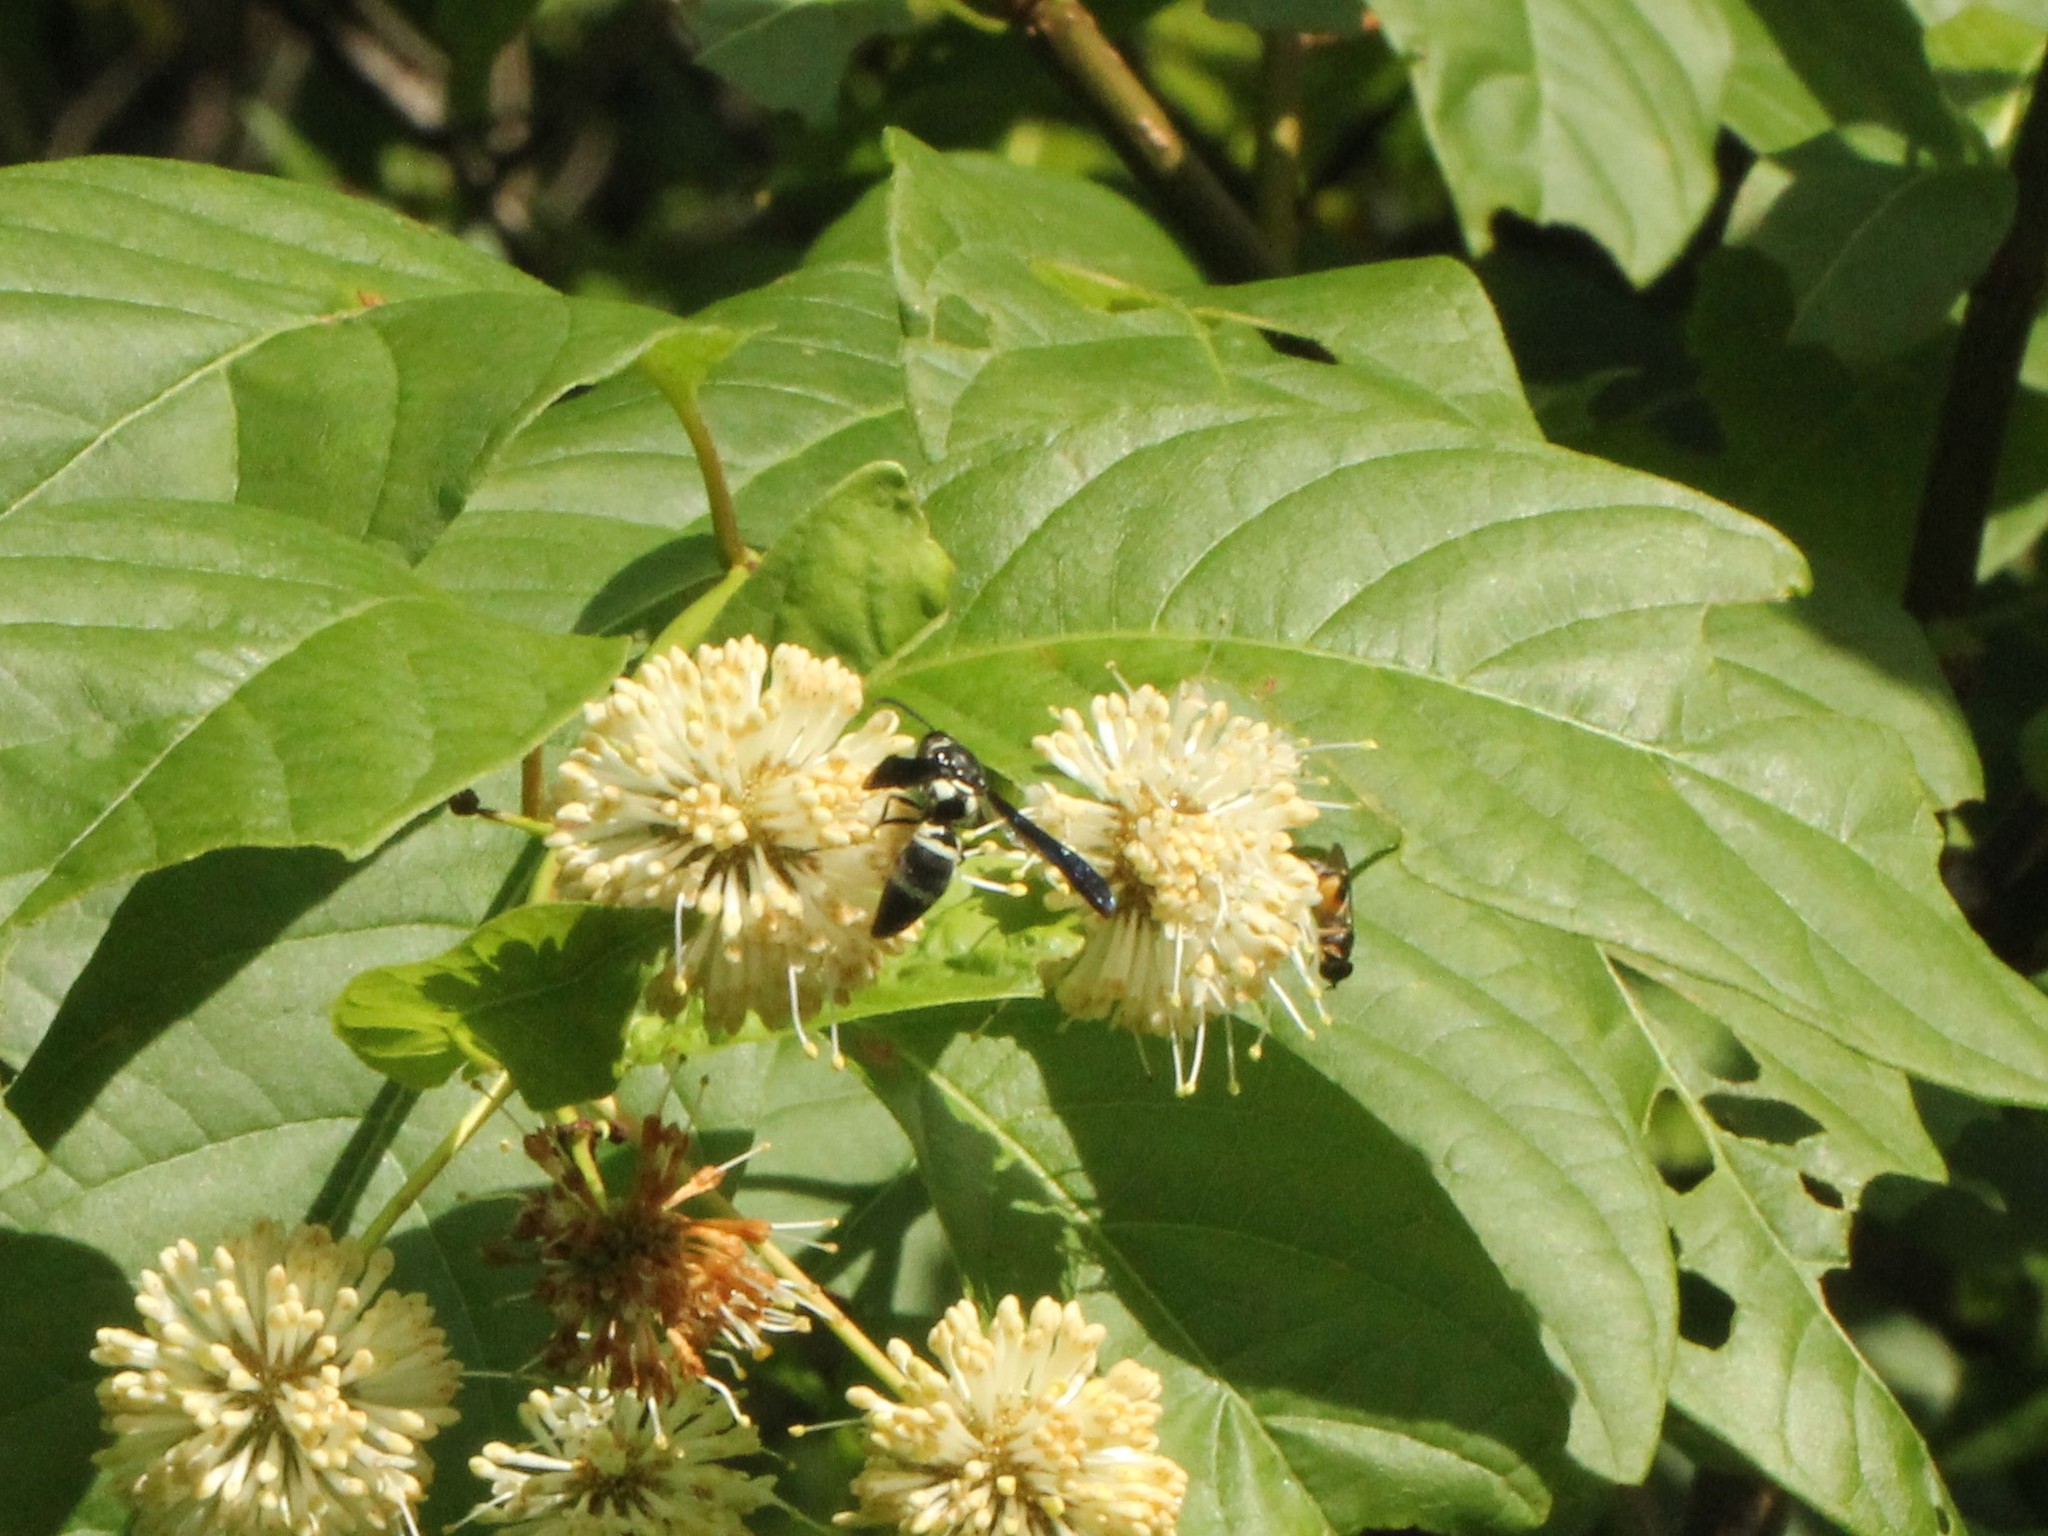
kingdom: Animalia
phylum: Arthropoda
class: Insecta
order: Hymenoptera
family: Eumenidae
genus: Pseudodynerus
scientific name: Pseudodynerus quadrisectus
